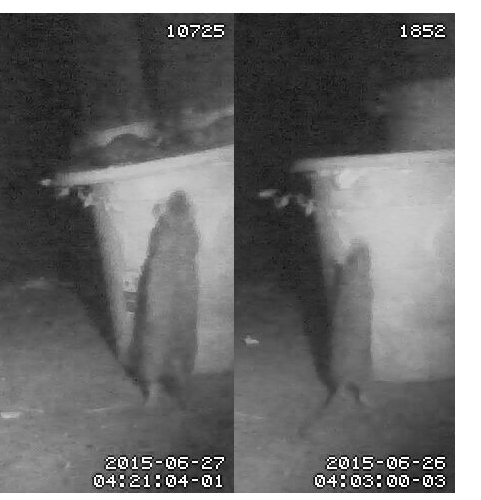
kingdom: Animalia
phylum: Chordata
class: Mammalia
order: Rodentia
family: Muridae
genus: Rattus
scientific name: Rattus norvegicus
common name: Brown rat
